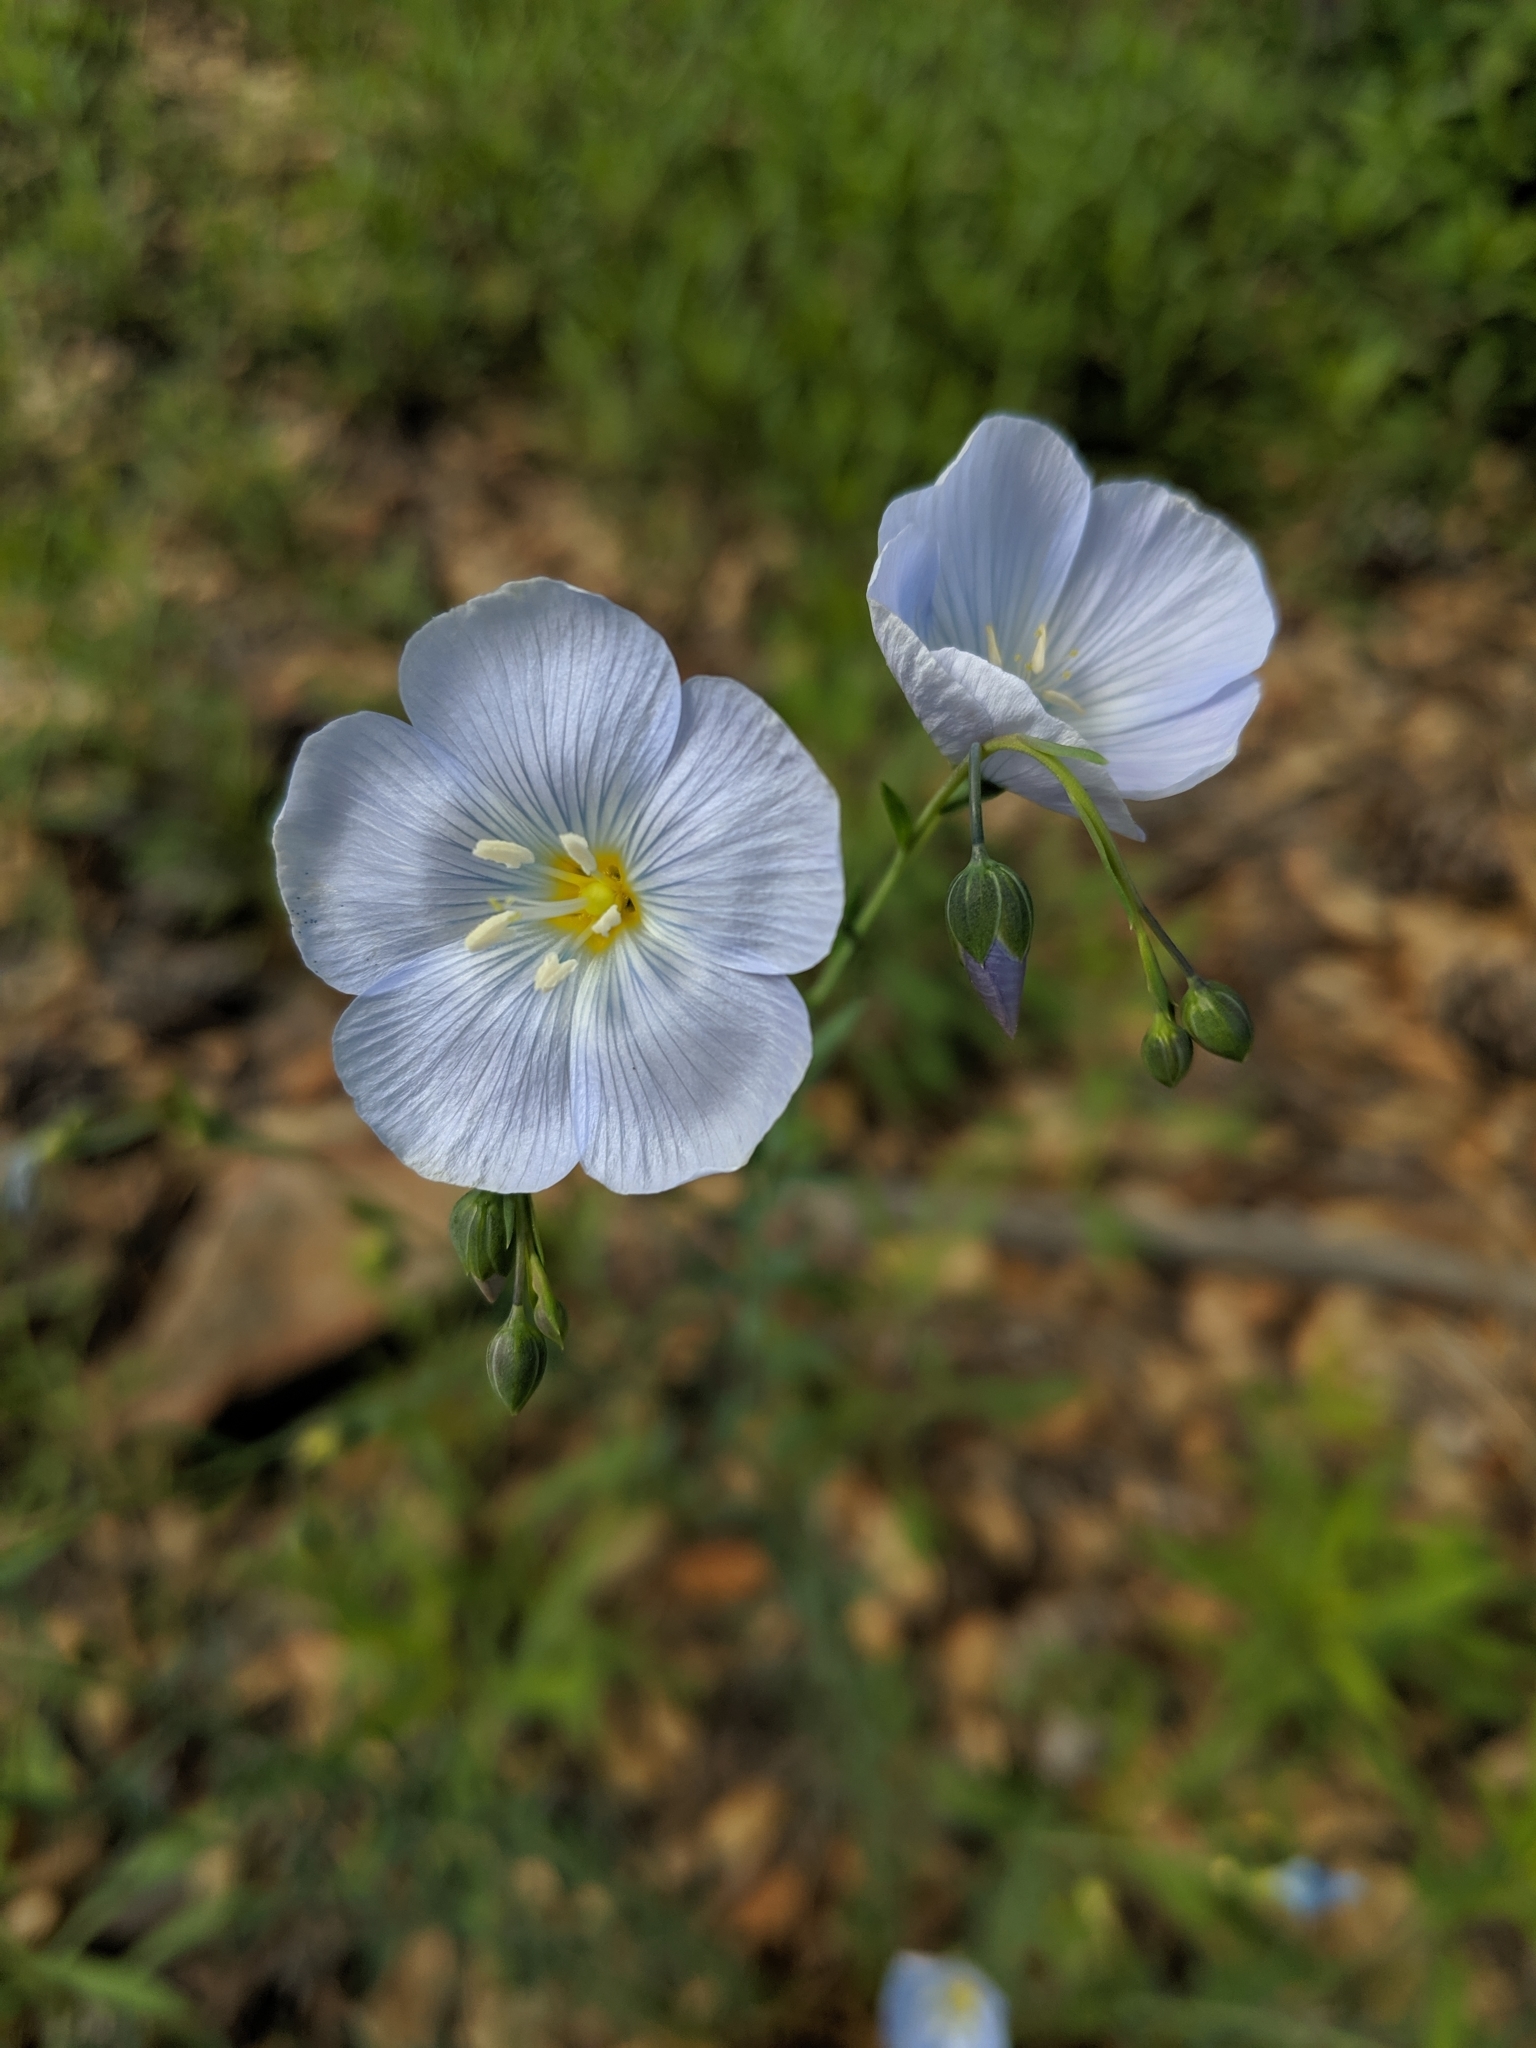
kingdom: Plantae
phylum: Tracheophyta
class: Magnoliopsida
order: Malpighiales
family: Linaceae
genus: Linum
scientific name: Linum lewisii
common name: Prairie flax
